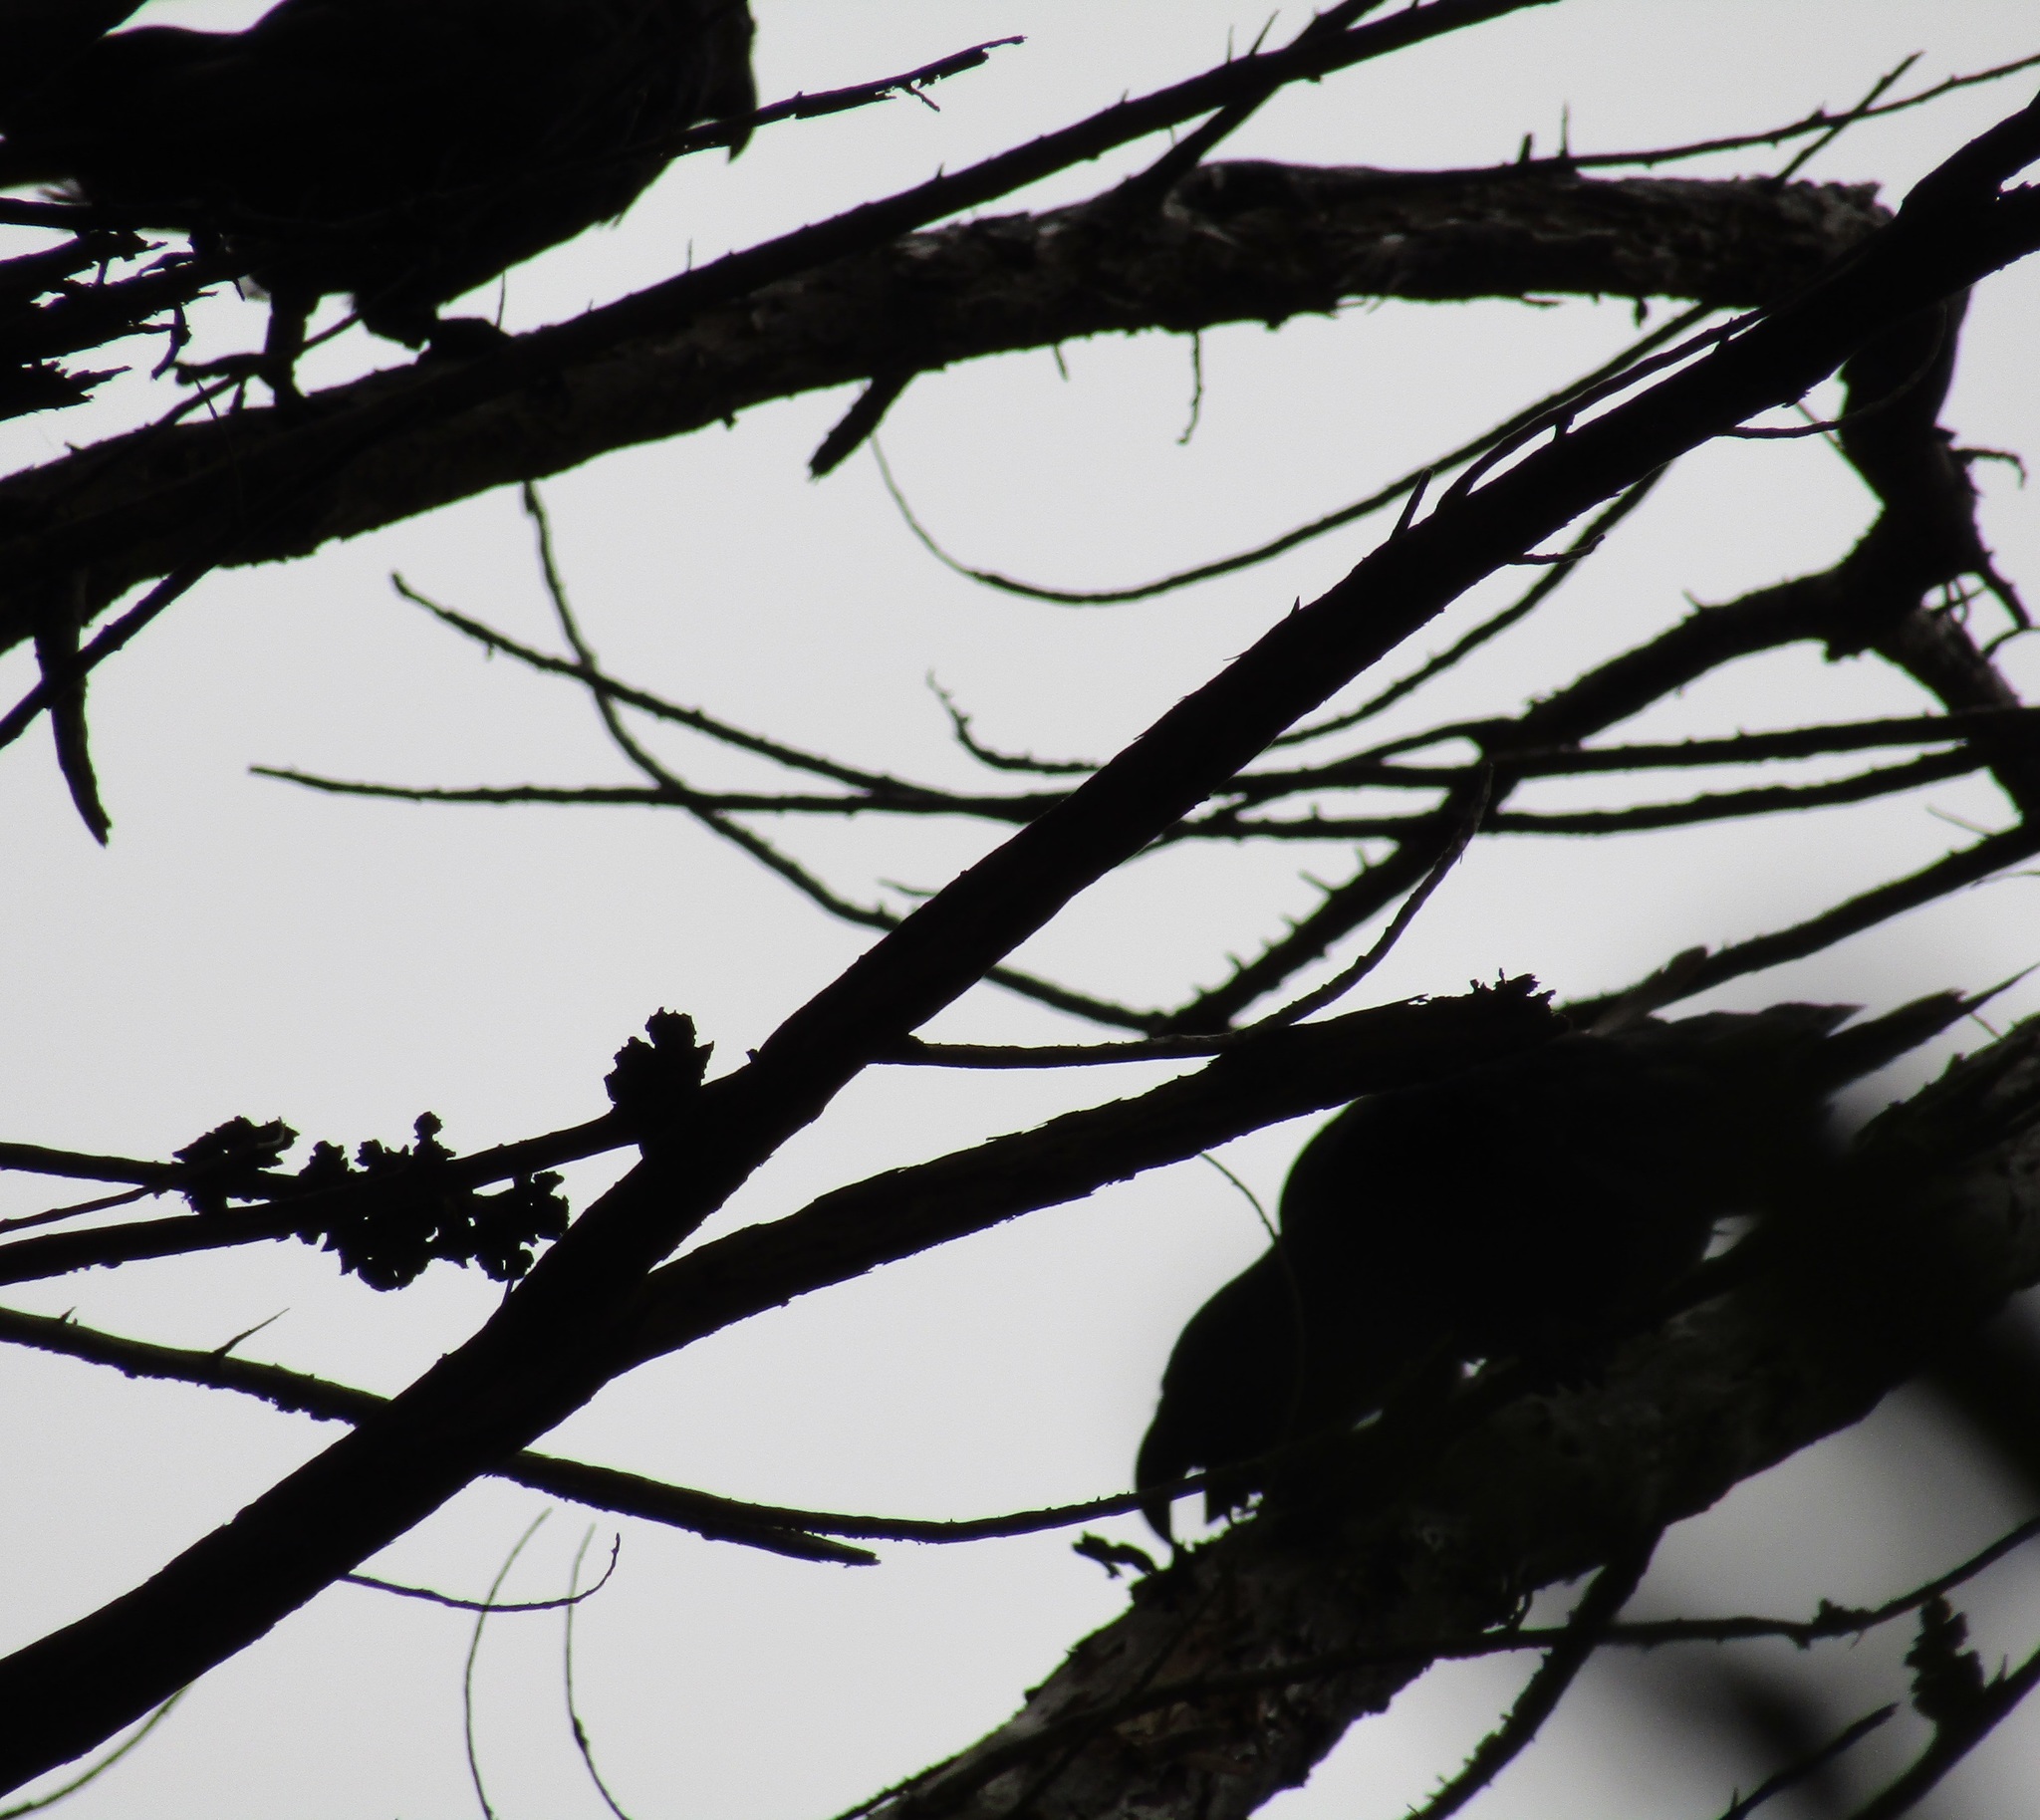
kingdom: Animalia
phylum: Chordata
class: Aves
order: Psittaciformes
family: Psittacidae
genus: Nestor
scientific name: Nestor meridionalis
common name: New zealand kaka
